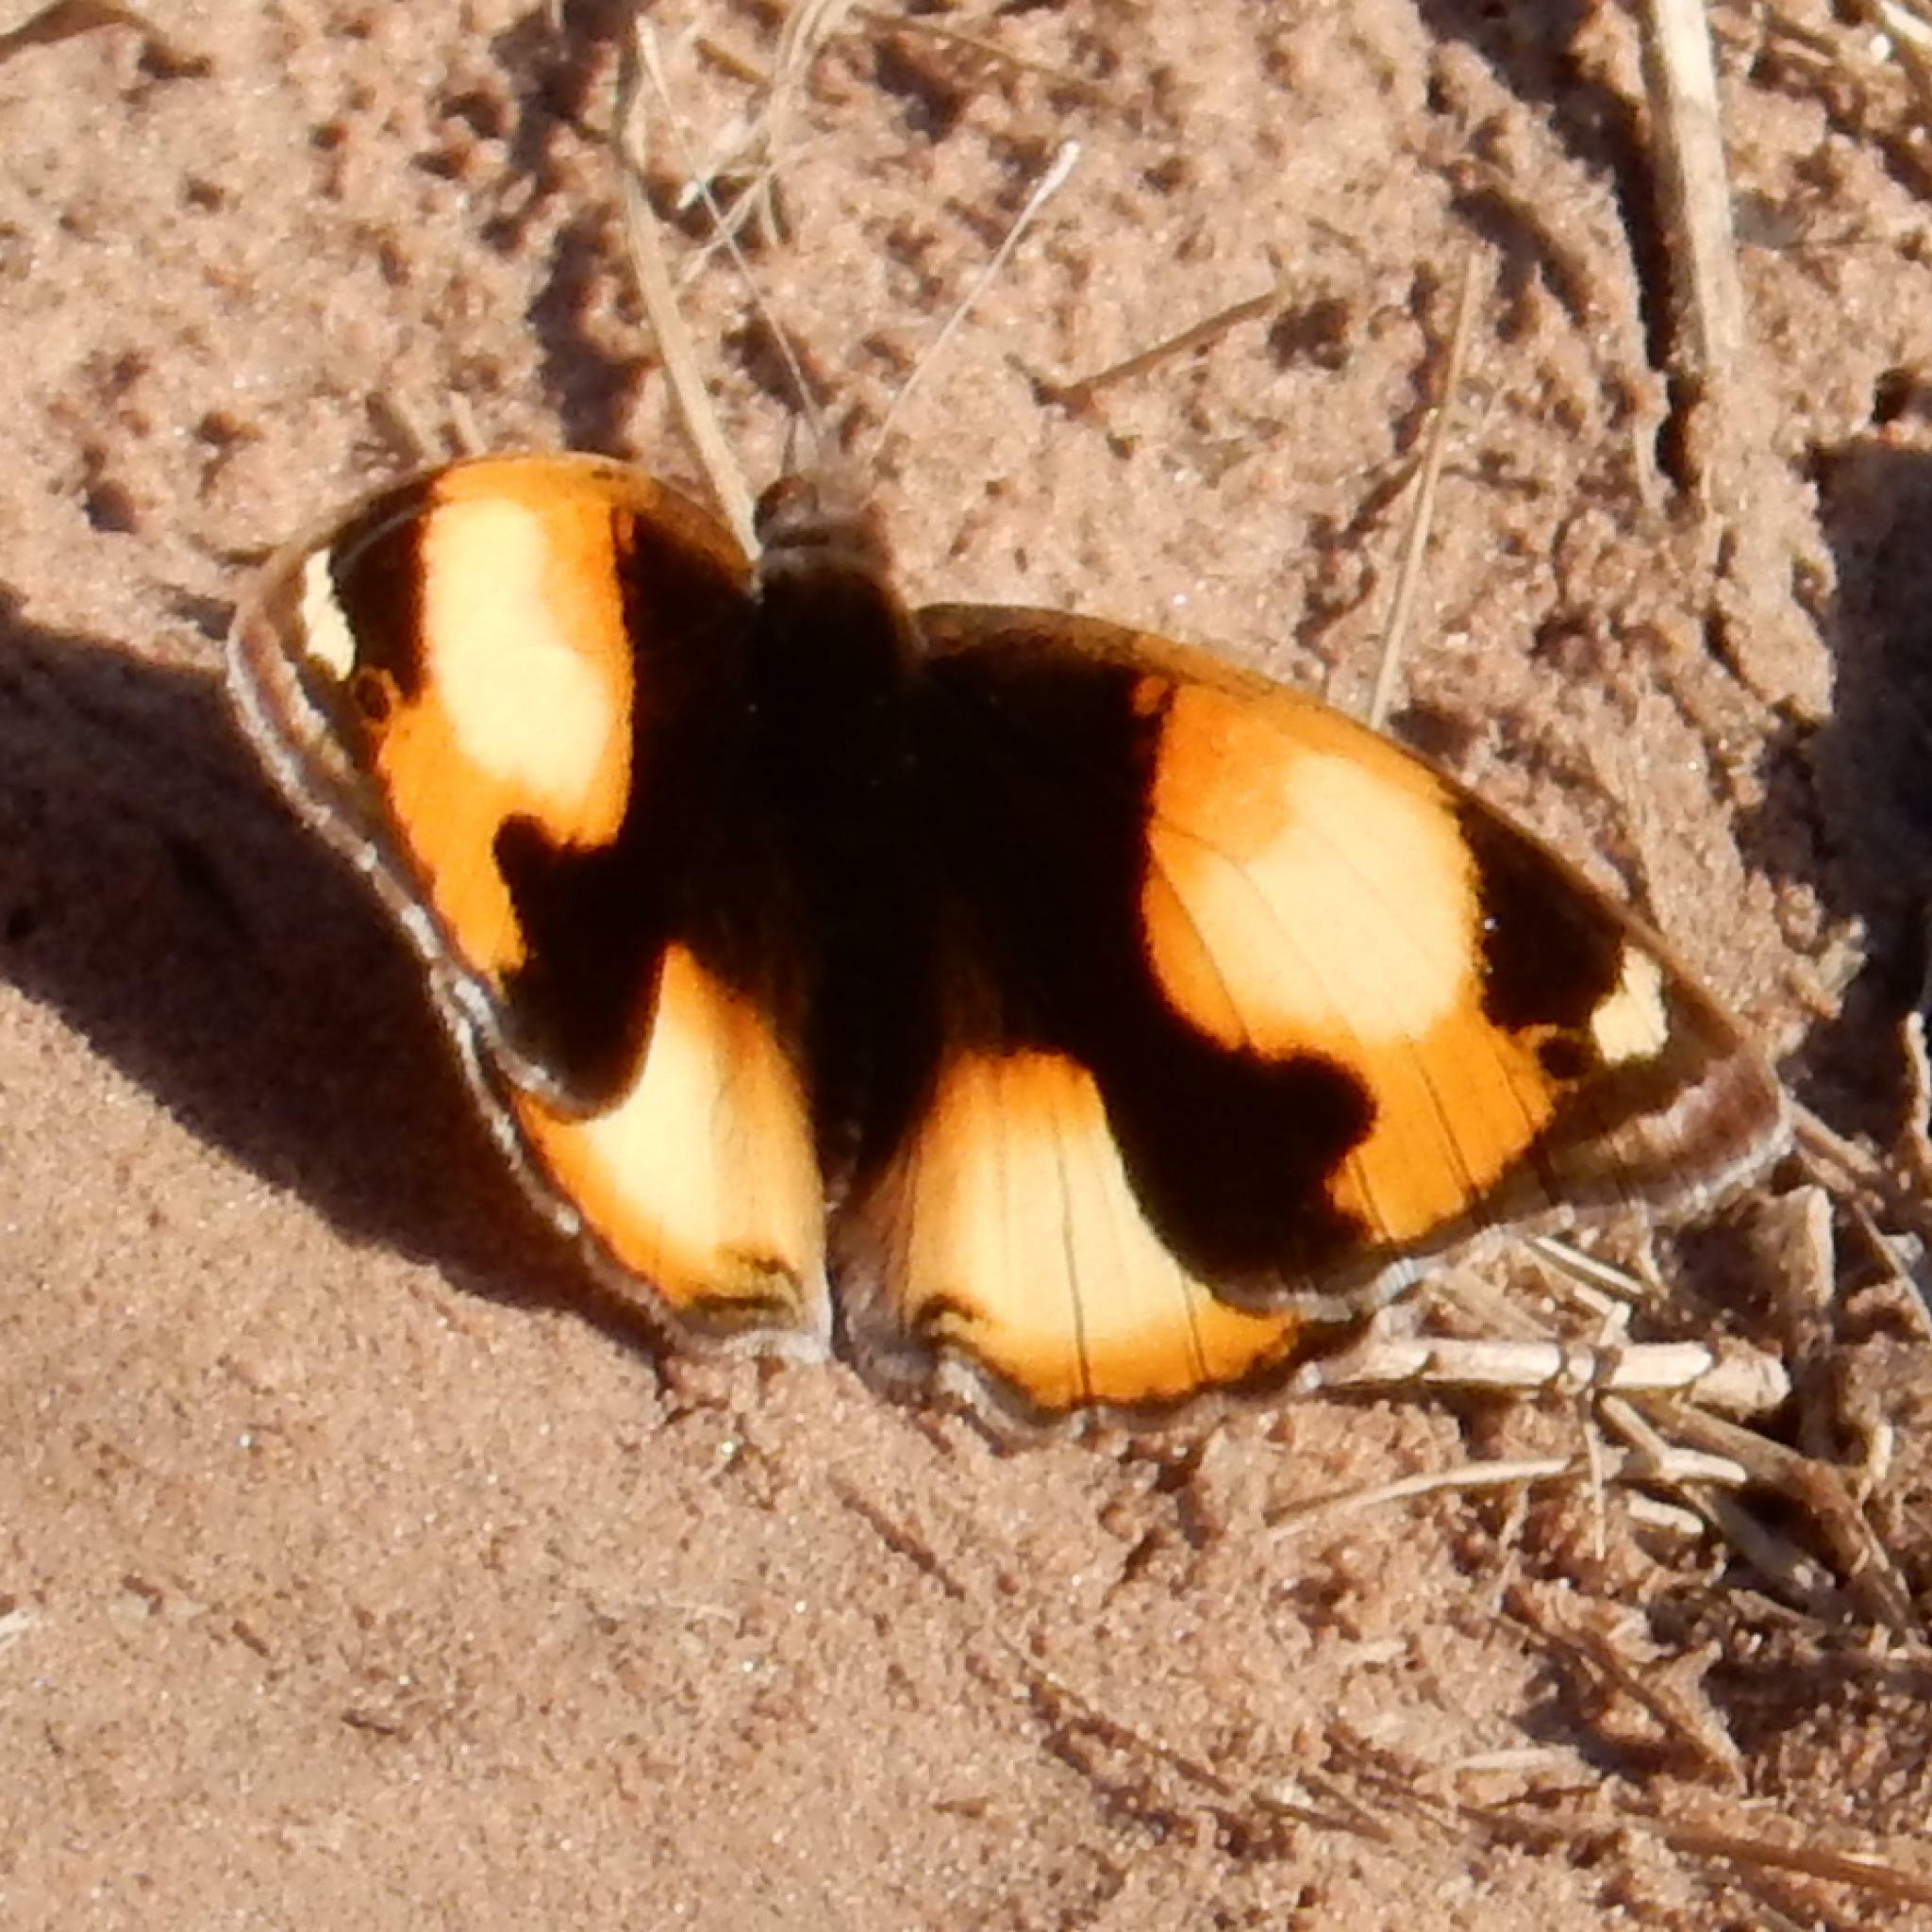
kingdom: Animalia
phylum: Arthropoda
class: Insecta
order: Lepidoptera
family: Nymphalidae
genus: Junonia
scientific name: Junonia hierta
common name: Yellow pansy
